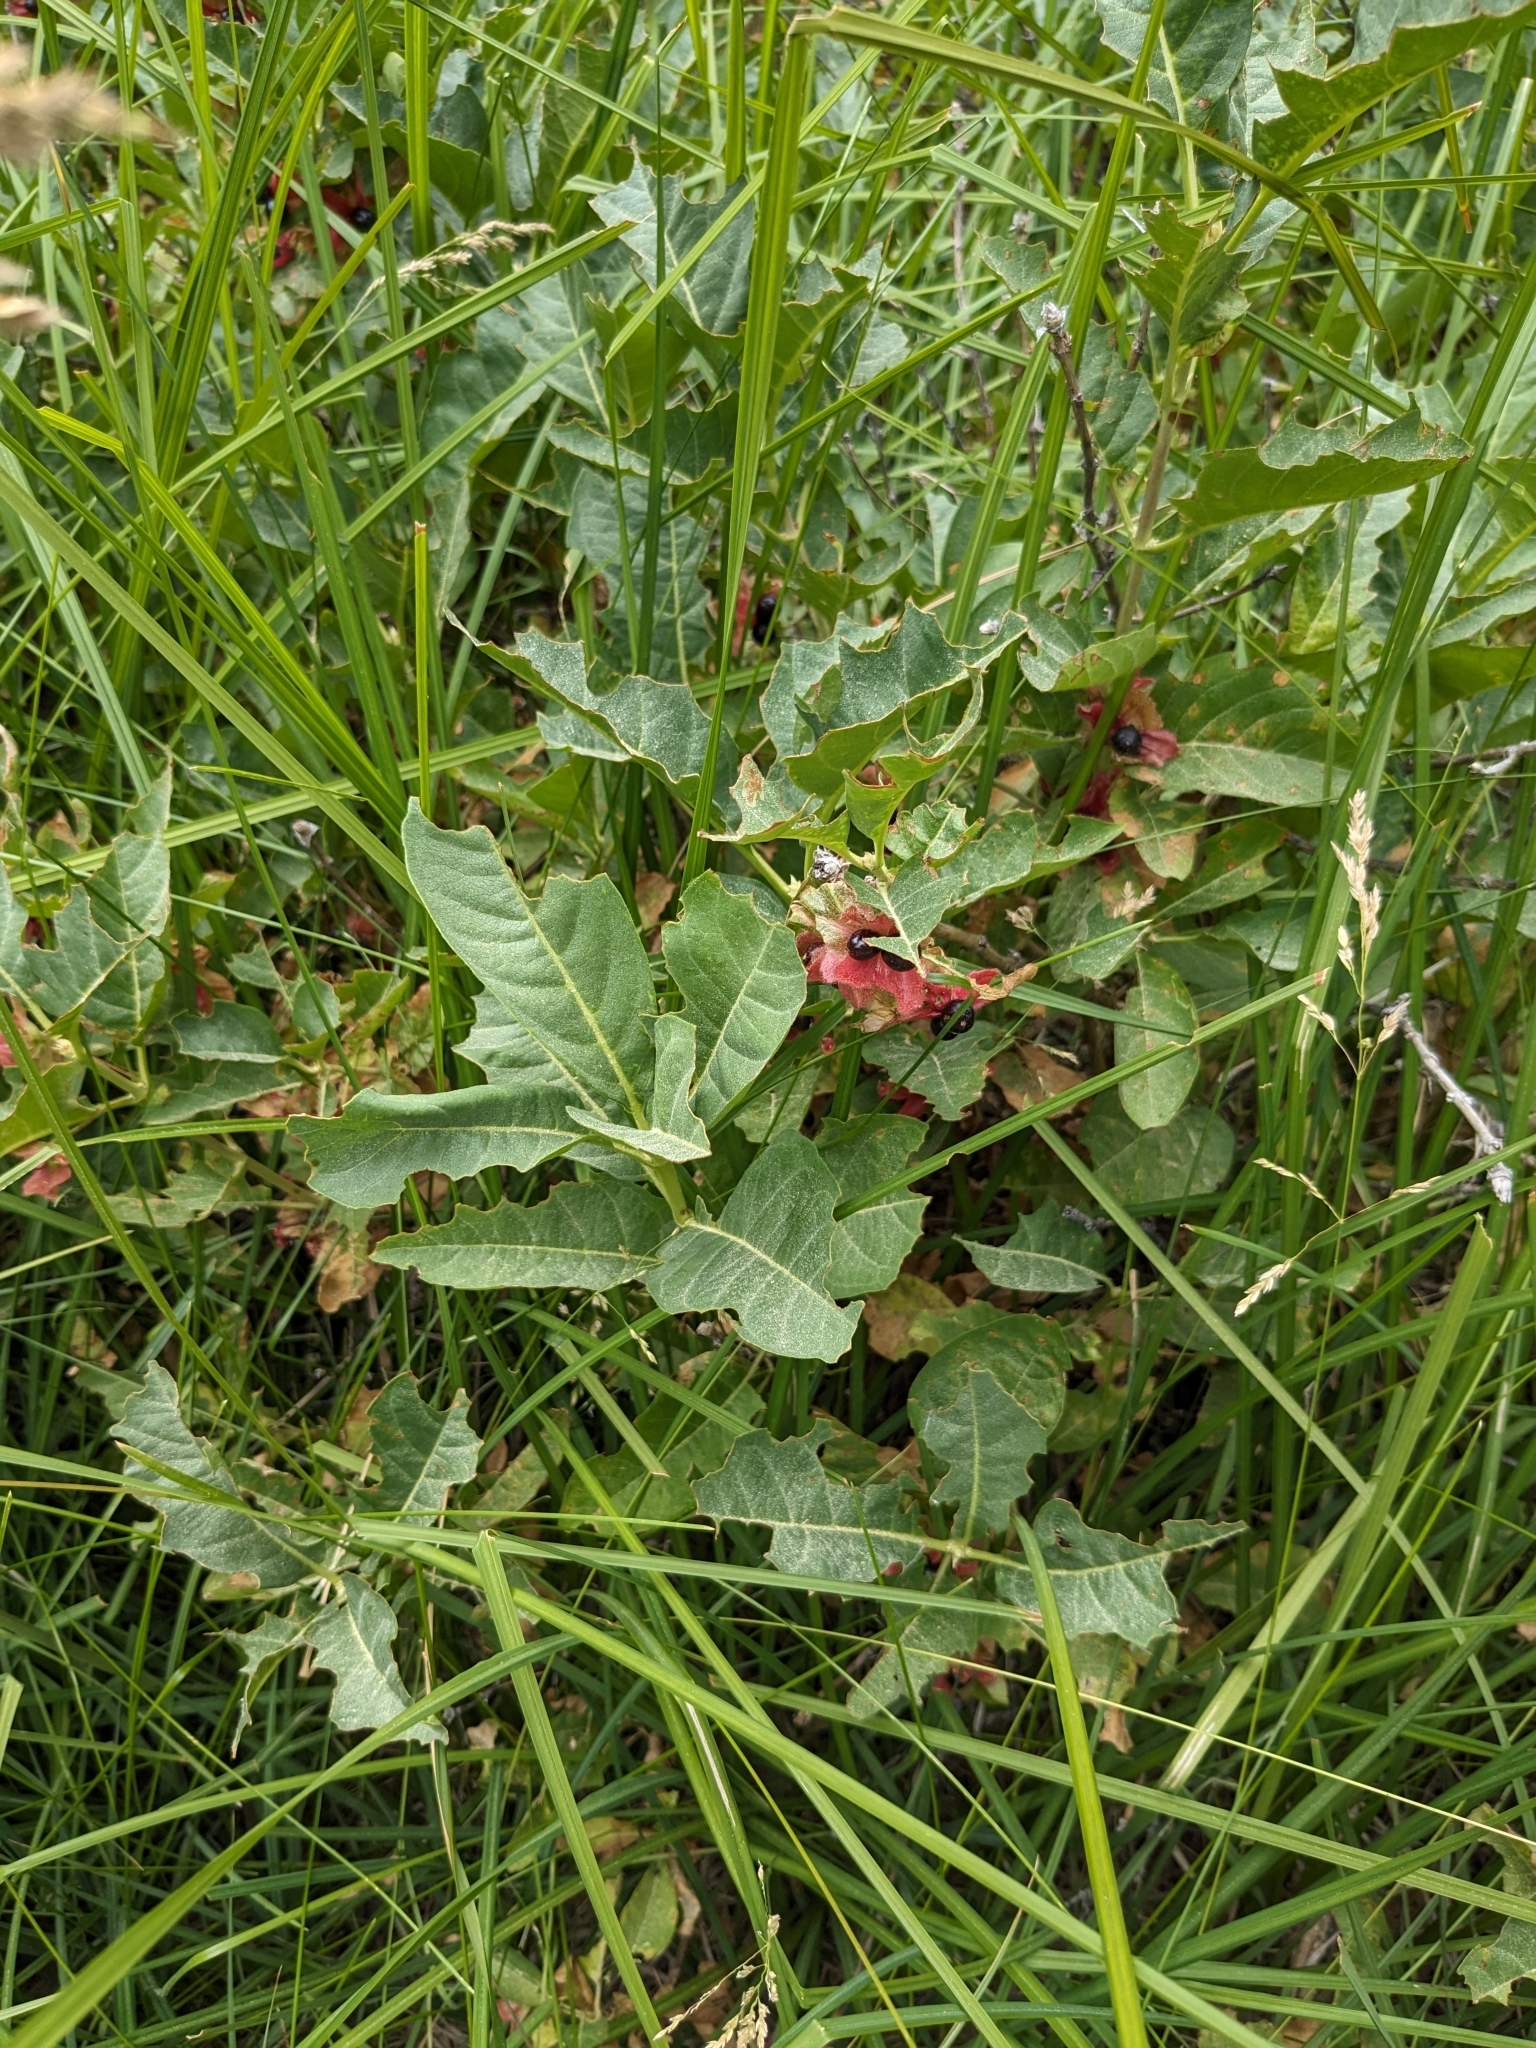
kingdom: Plantae
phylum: Tracheophyta
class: Magnoliopsida
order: Dipsacales
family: Caprifoliaceae
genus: Lonicera
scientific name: Lonicera involucrata
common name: Californian honeysuckle
